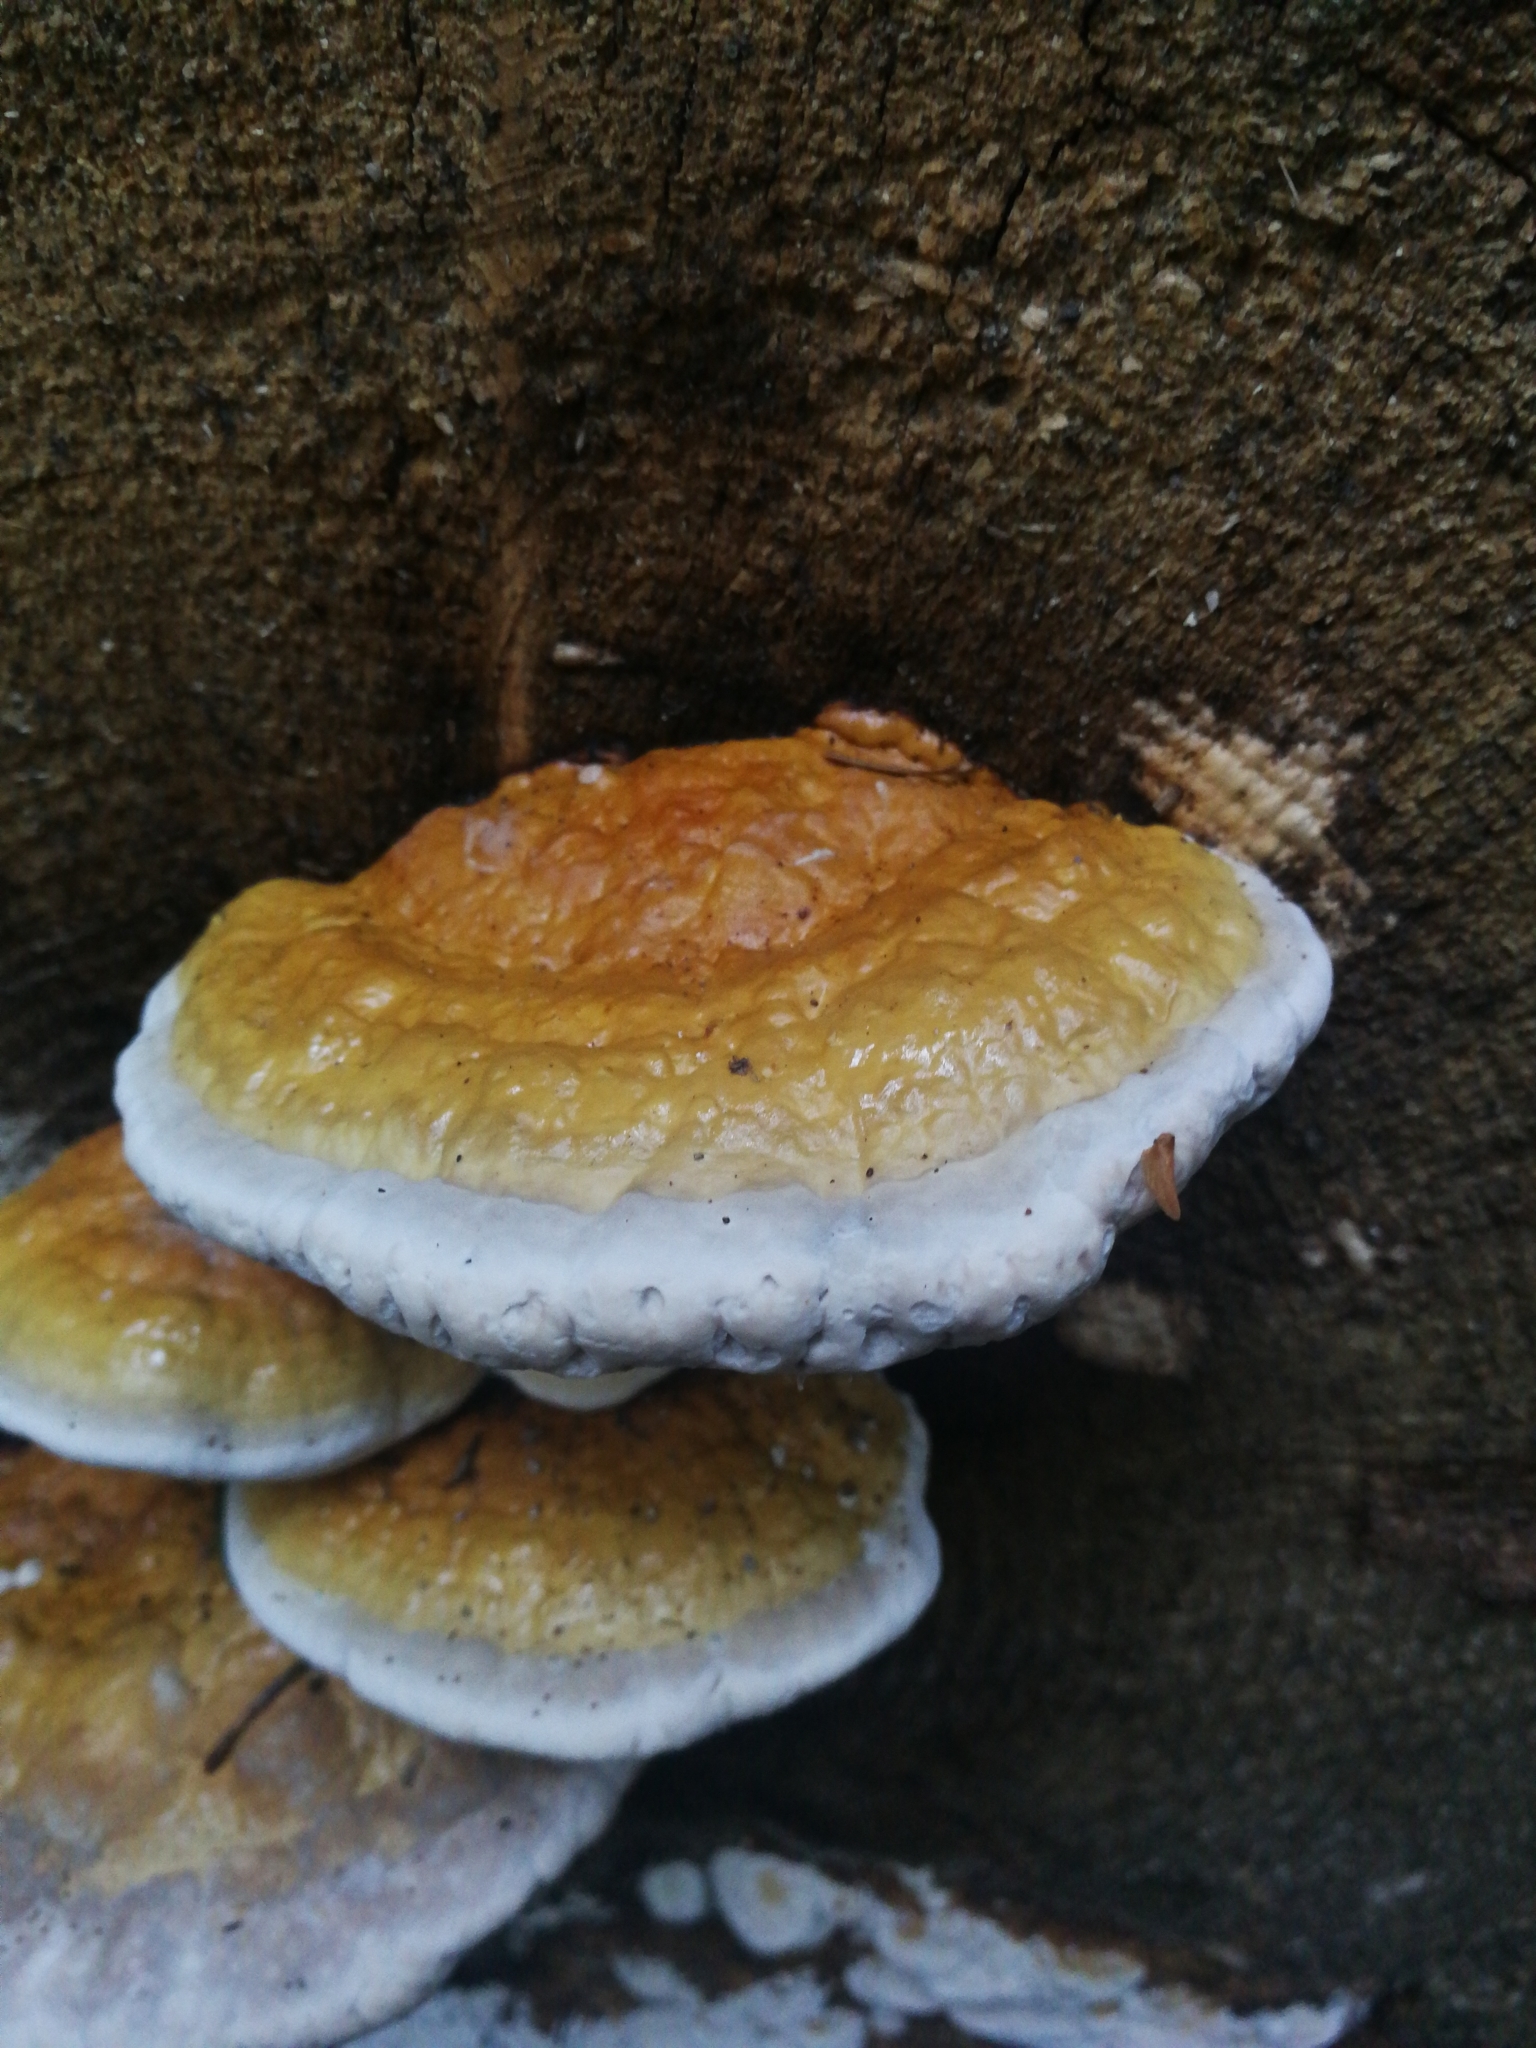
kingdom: Fungi
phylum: Basidiomycota
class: Agaricomycetes
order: Polyporales
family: Fomitopsidaceae
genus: Fomitopsis
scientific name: Fomitopsis pinicola
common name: Red-belted bracket
